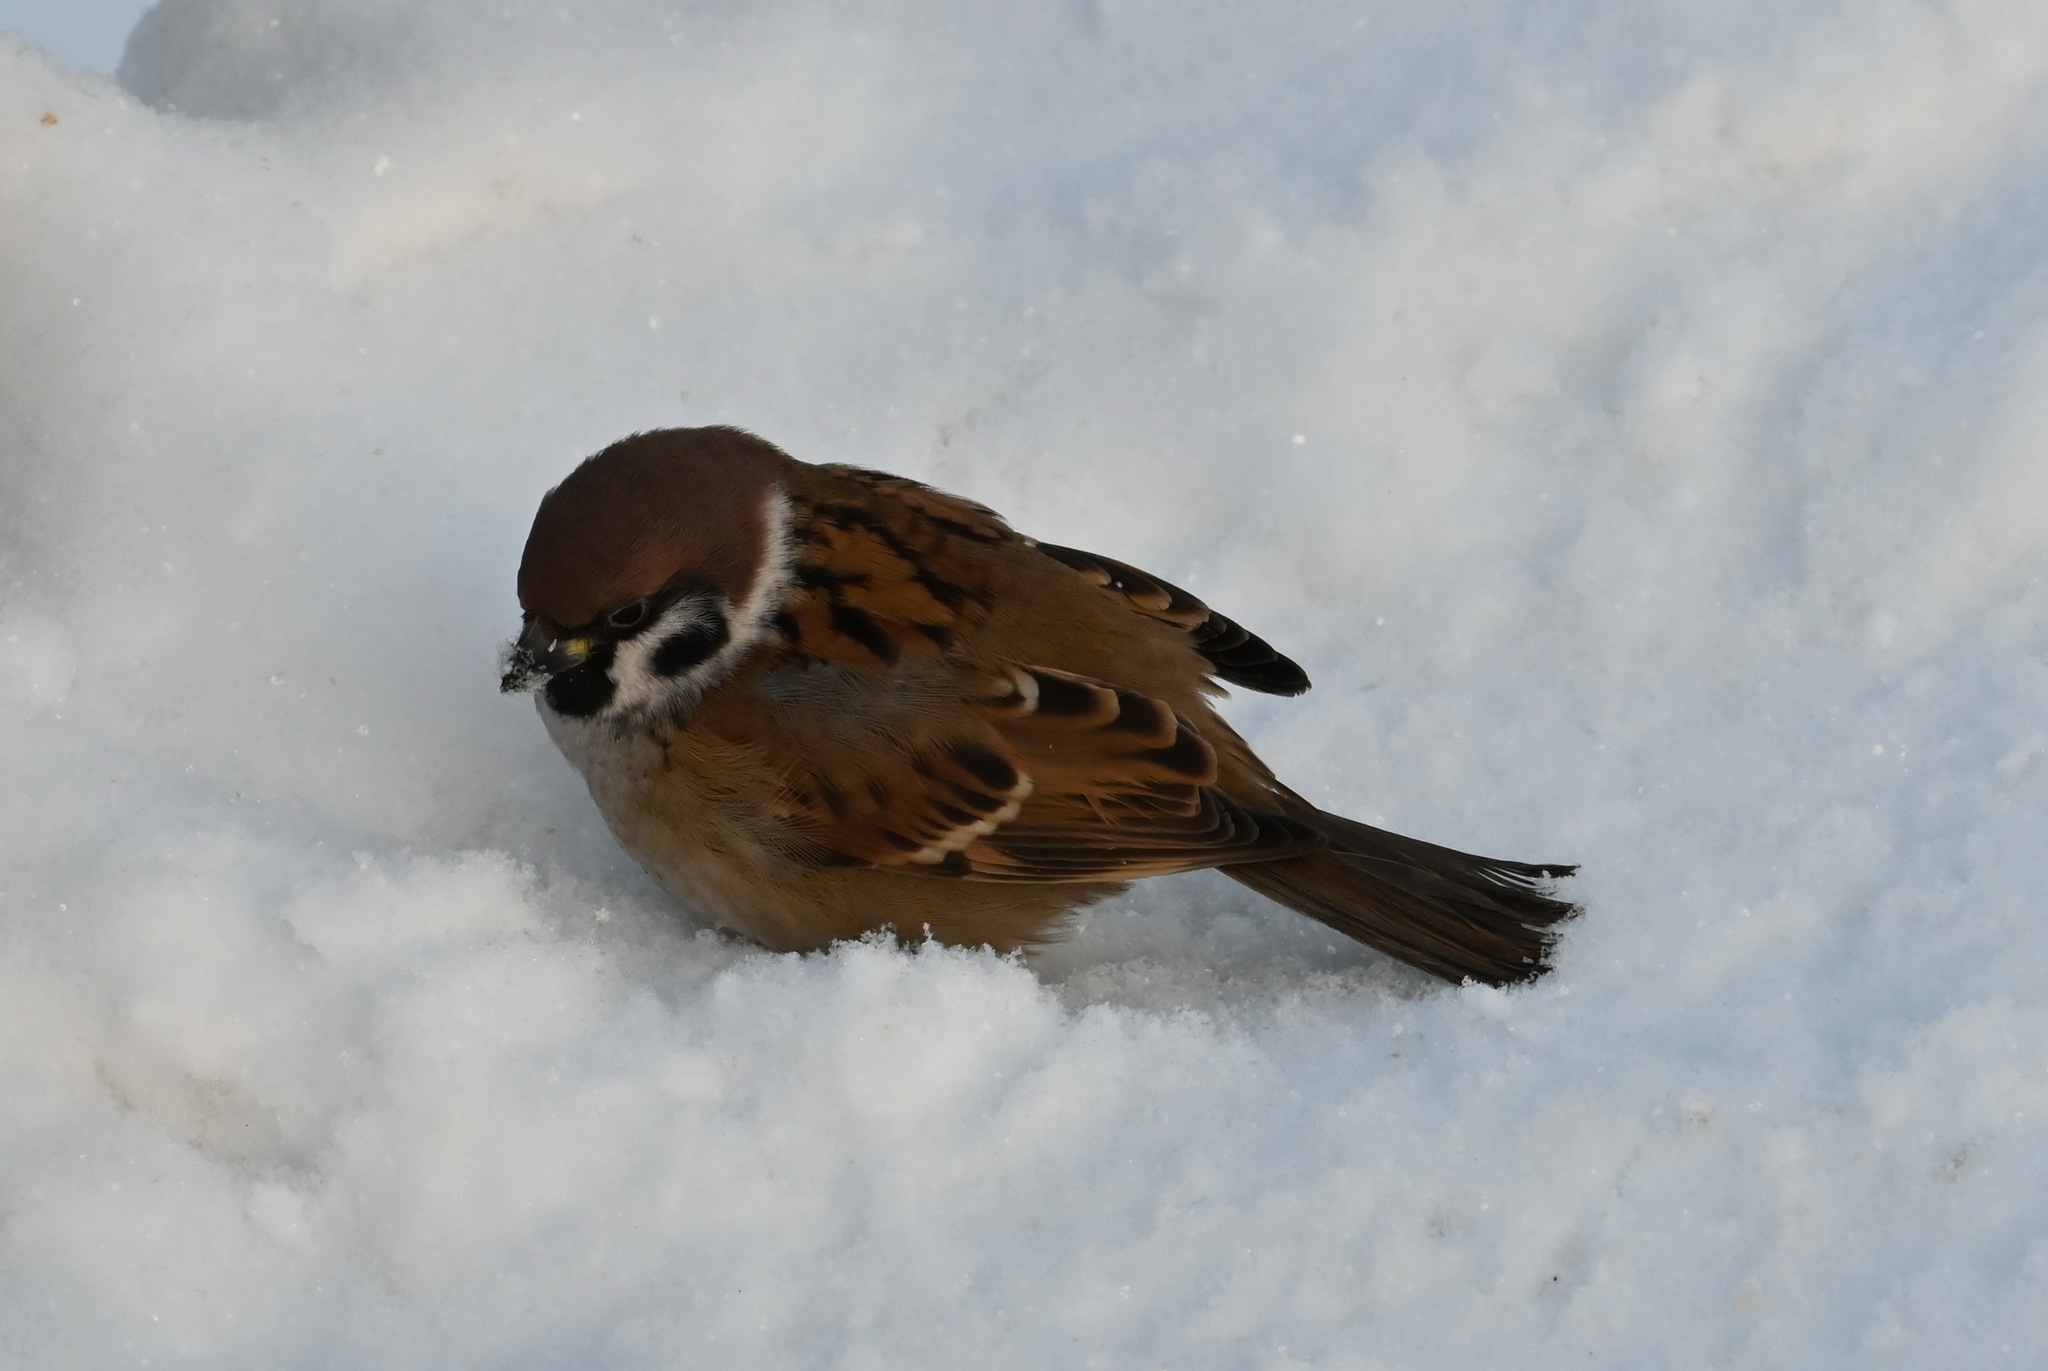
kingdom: Animalia
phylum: Chordata
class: Aves
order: Passeriformes
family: Passeridae
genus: Passer
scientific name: Passer montanus
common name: Eurasian tree sparrow
